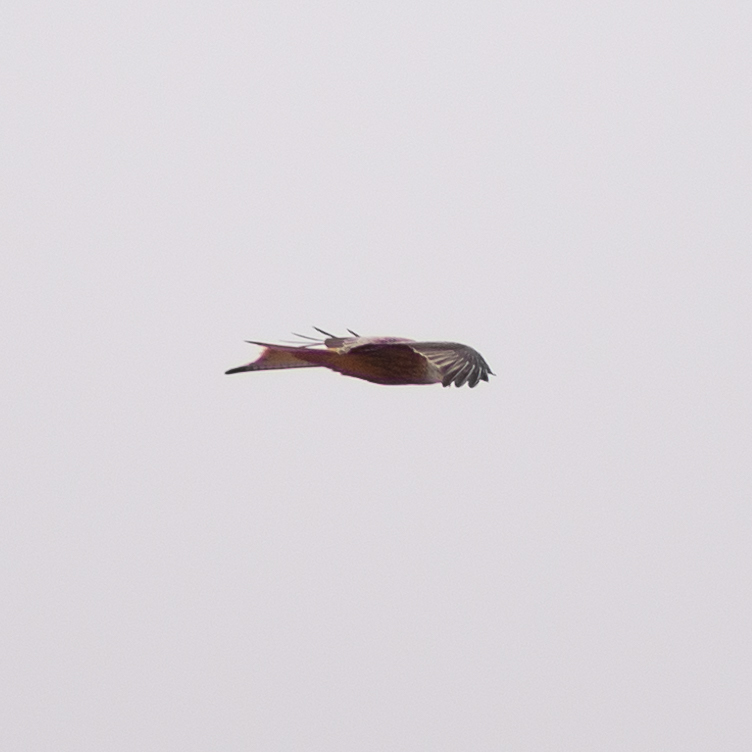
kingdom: Animalia
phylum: Chordata
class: Aves
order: Accipitriformes
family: Accipitridae
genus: Milvus
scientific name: Milvus milvus
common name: Red kite
